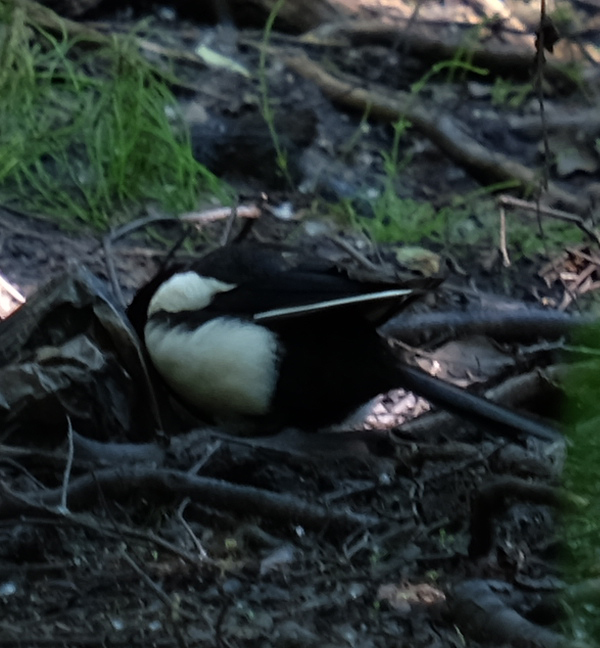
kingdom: Animalia
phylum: Chordata
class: Aves
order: Passeriformes
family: Corvidae
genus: Pica
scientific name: Pica hudsonia
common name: Black-billed magpie
